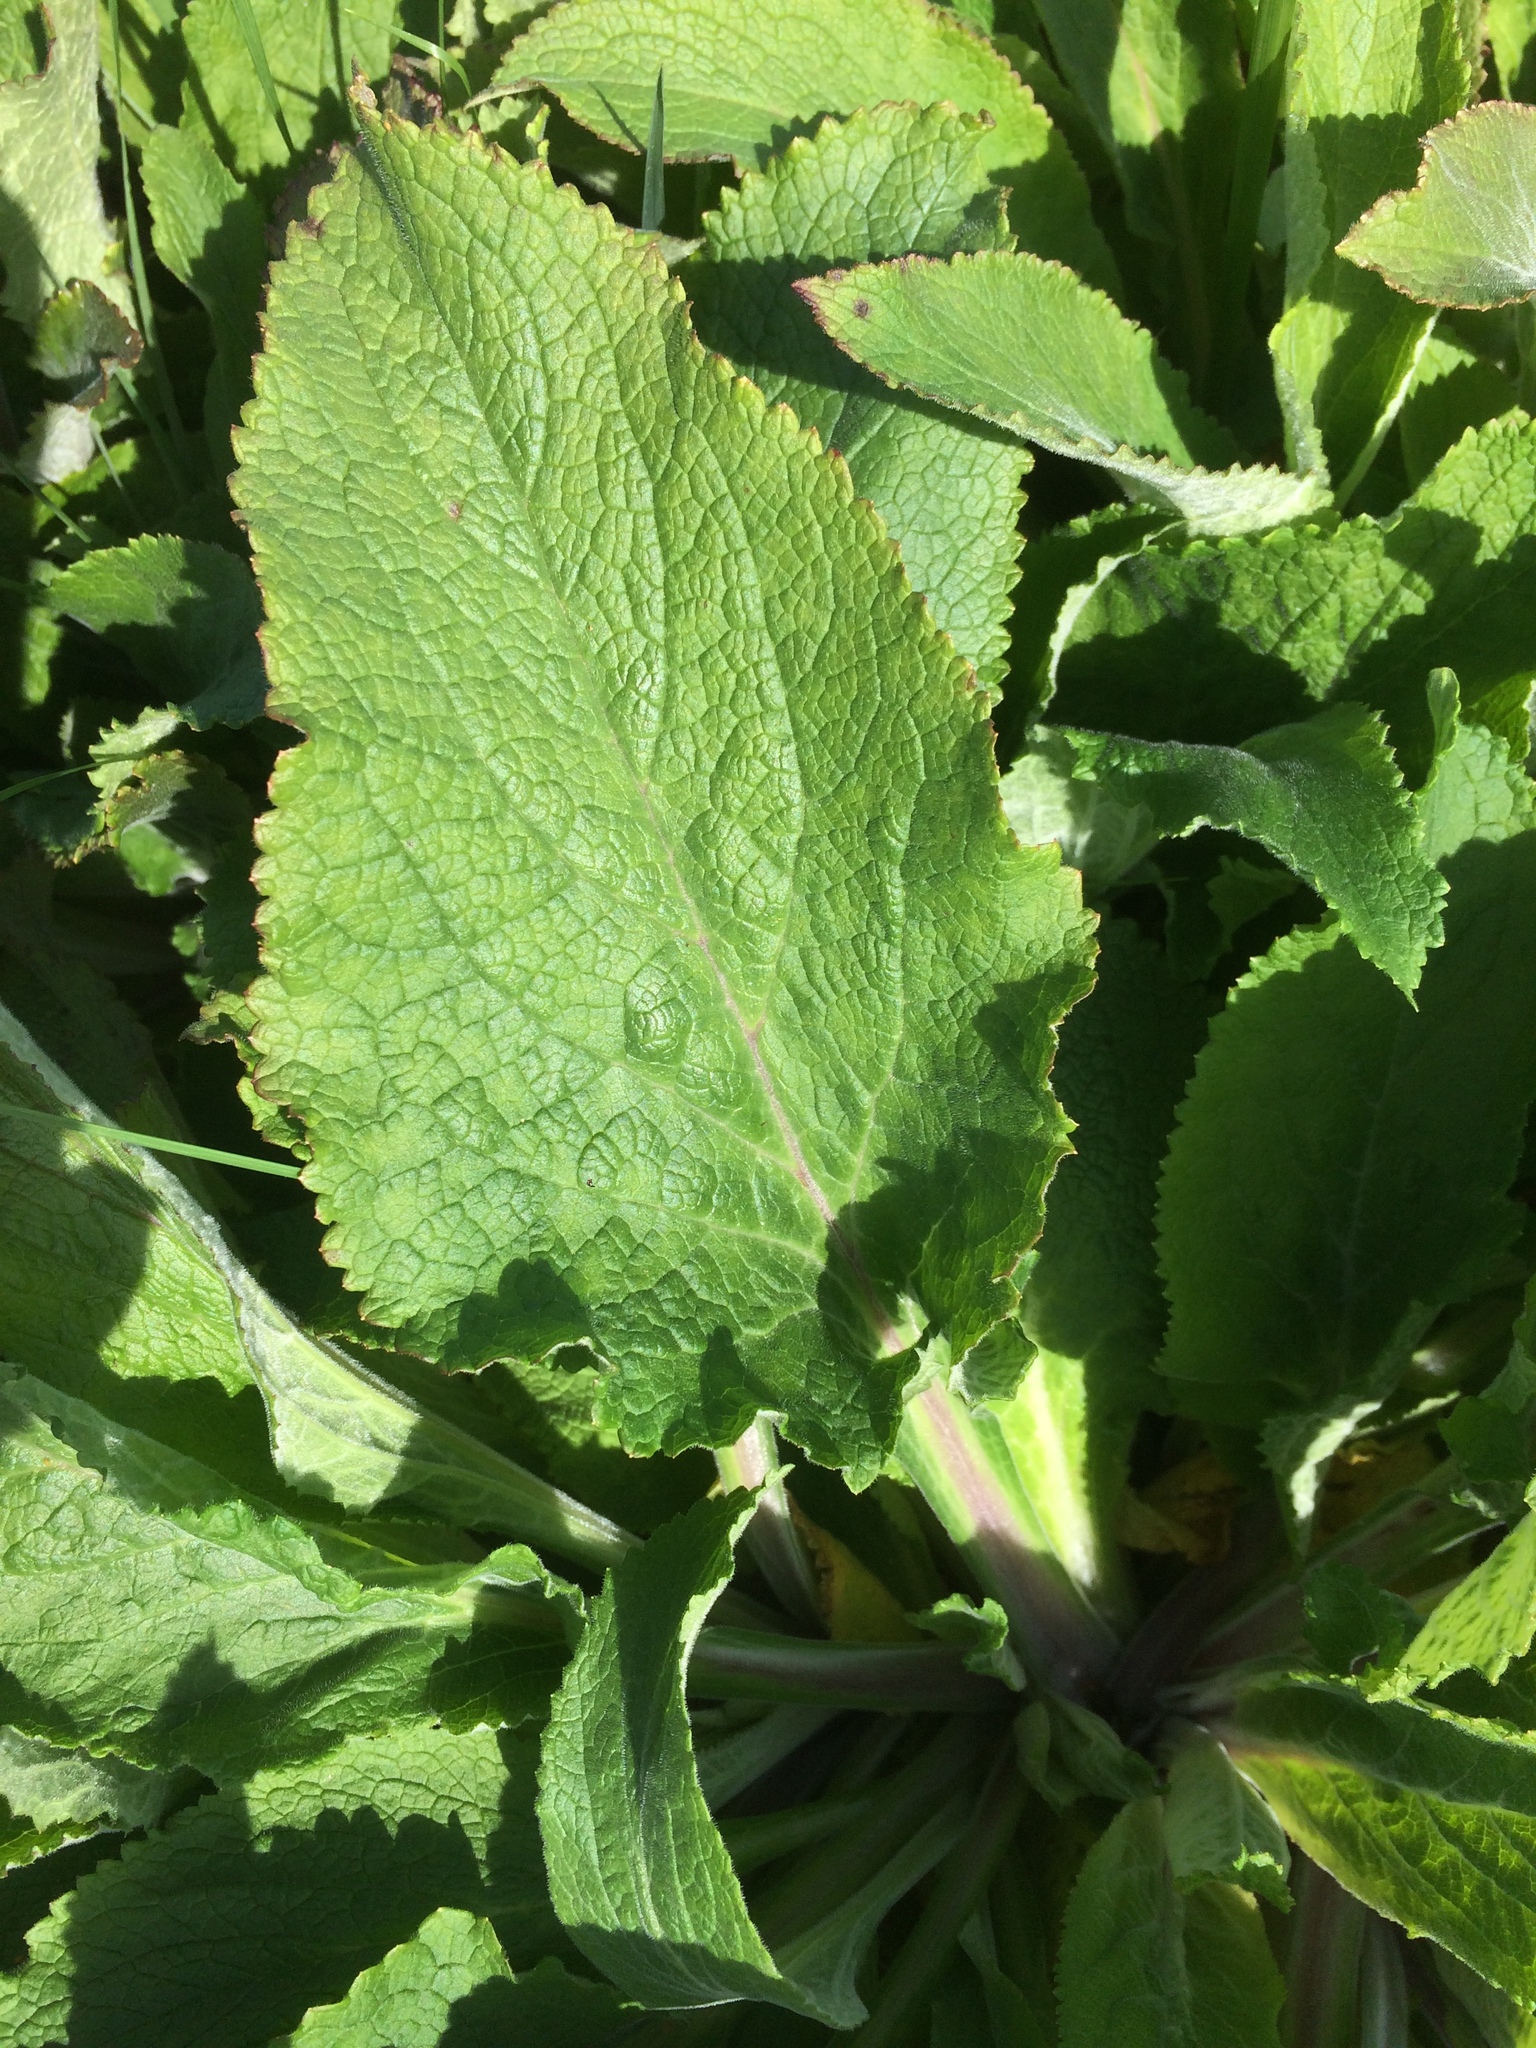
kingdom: Plantae
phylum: Tracheophyta
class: Magnoliopsida
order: Lamiales
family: Plantaginaceae
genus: Digitalis
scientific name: Digitalis purpurea
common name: Foxglove
